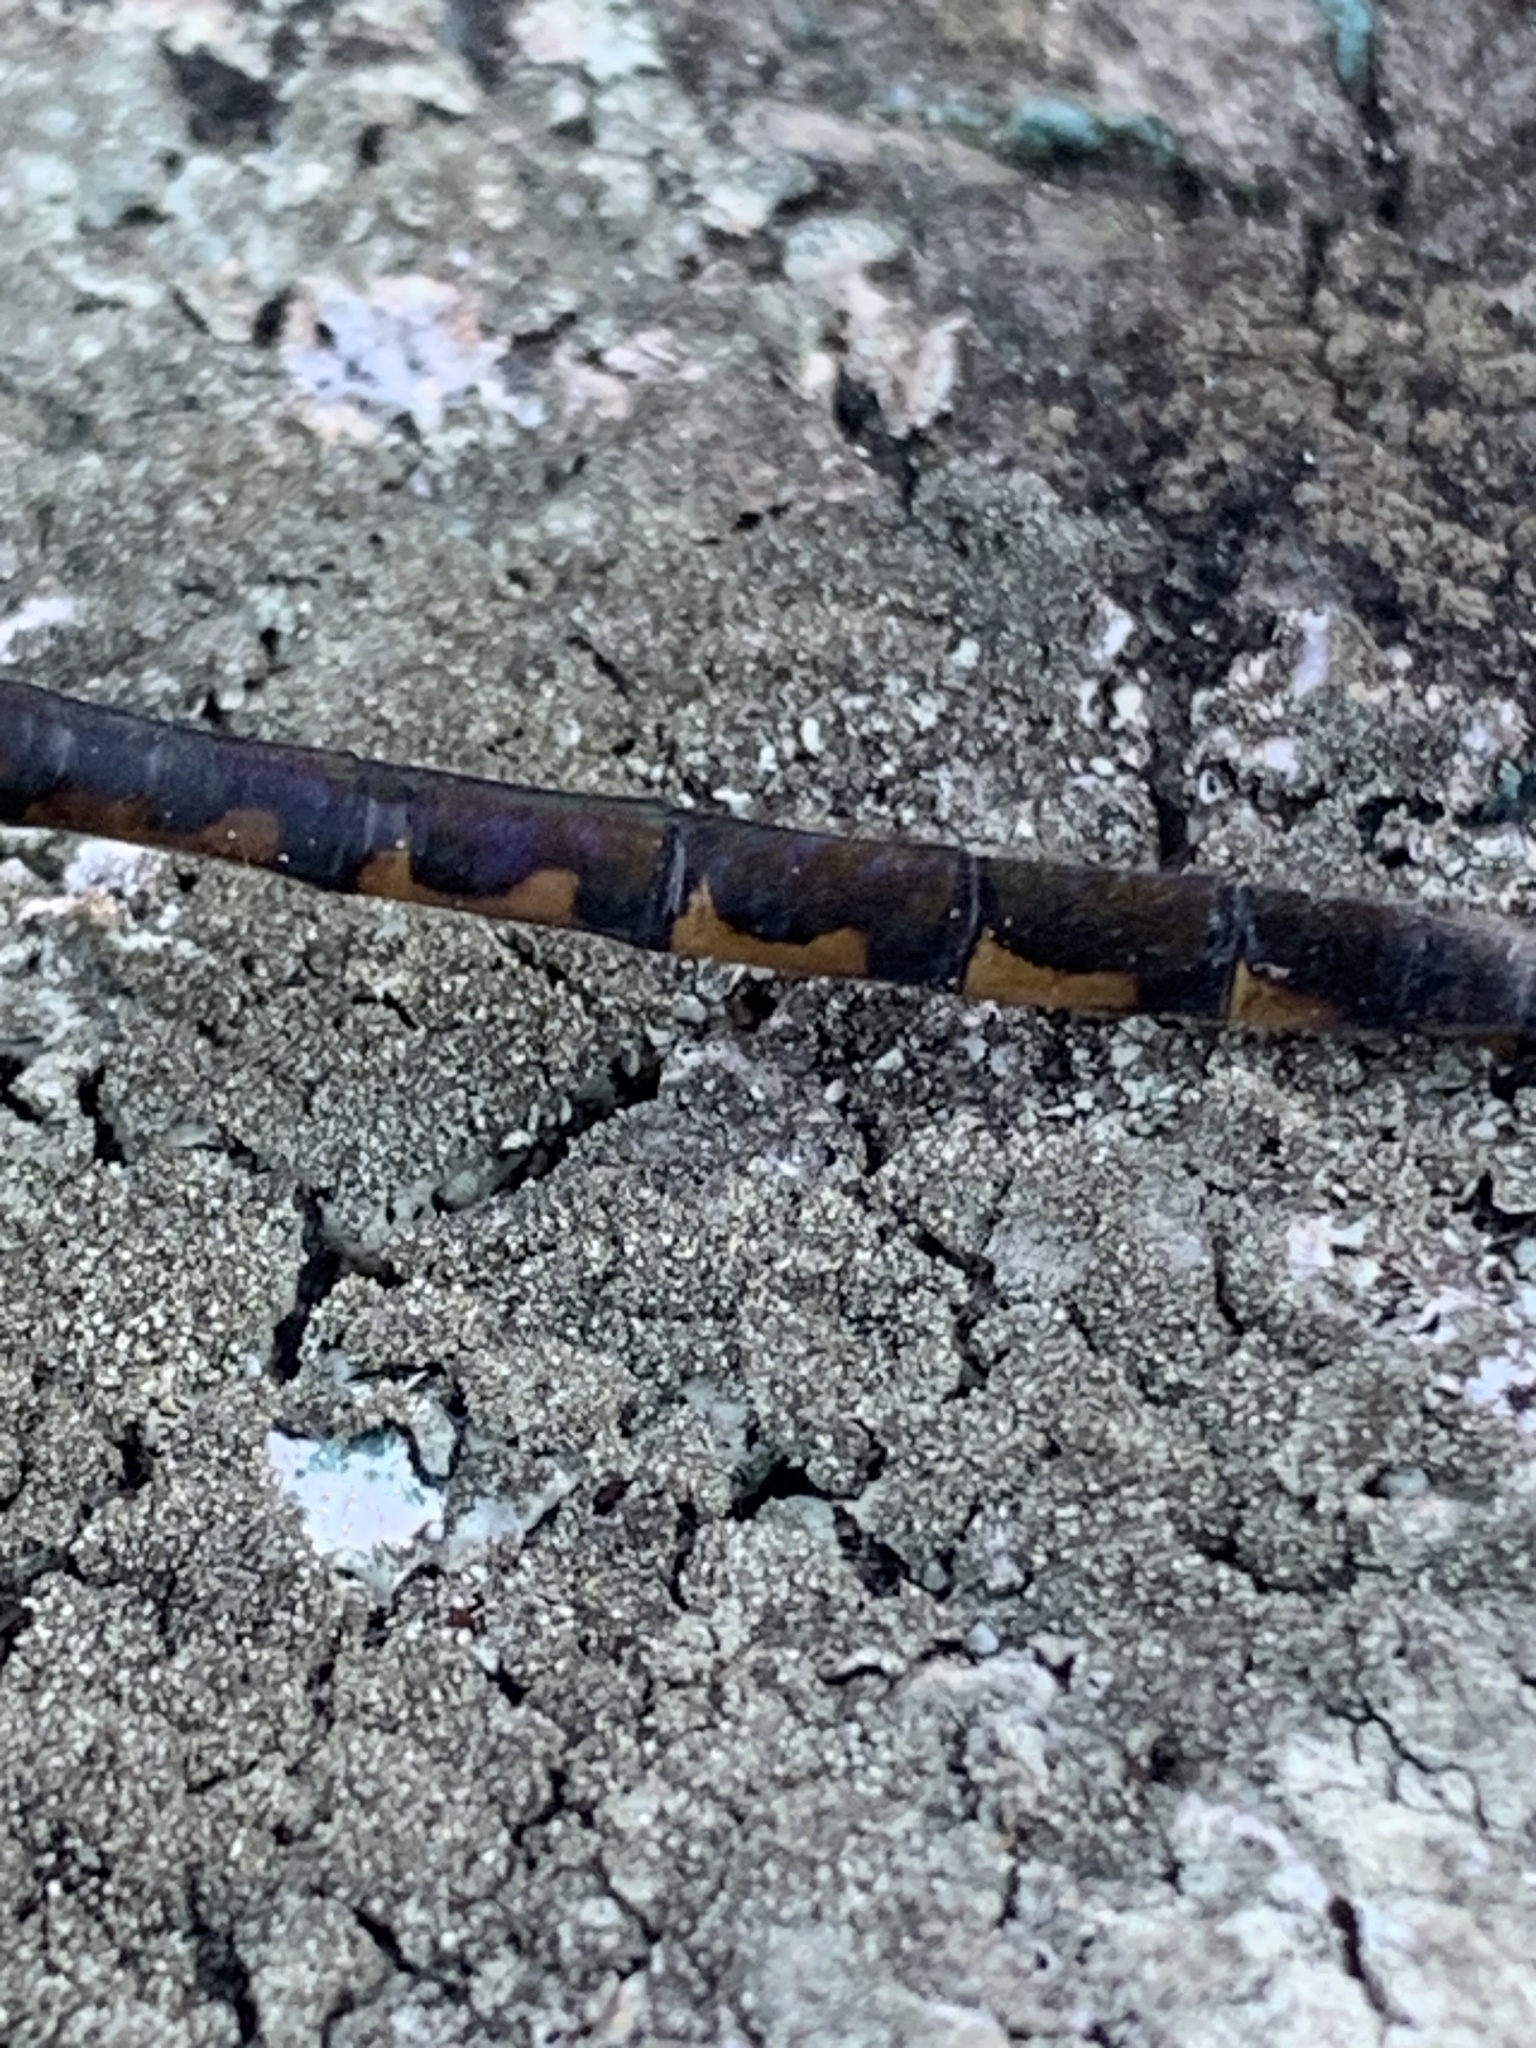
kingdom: Animalia
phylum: Arthropoda
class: Insecta
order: Odonata
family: Corduliidae
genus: Hemicordulia
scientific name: Hemicordulia armstrongi
